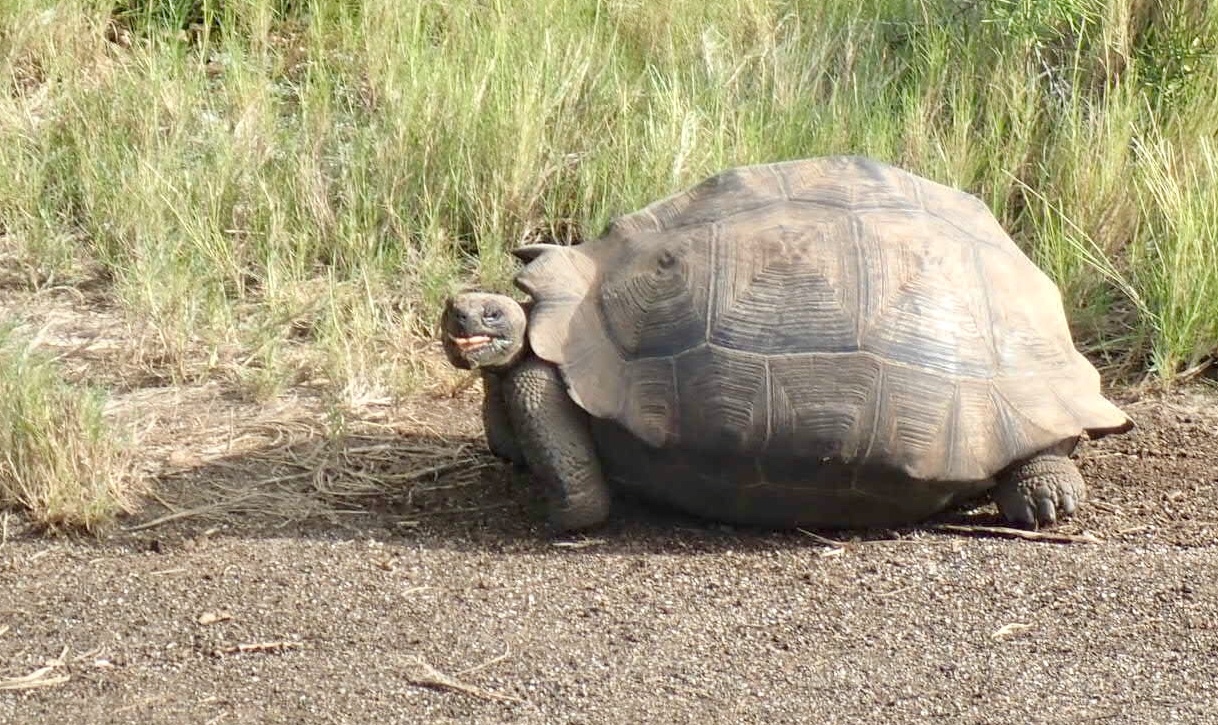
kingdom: Animalia
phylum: Chordata
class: Testudines
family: Testudinidae
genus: Chelonoidis
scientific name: Chelonoidis vandenburghi
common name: Alcedo volcano giant tortoise
